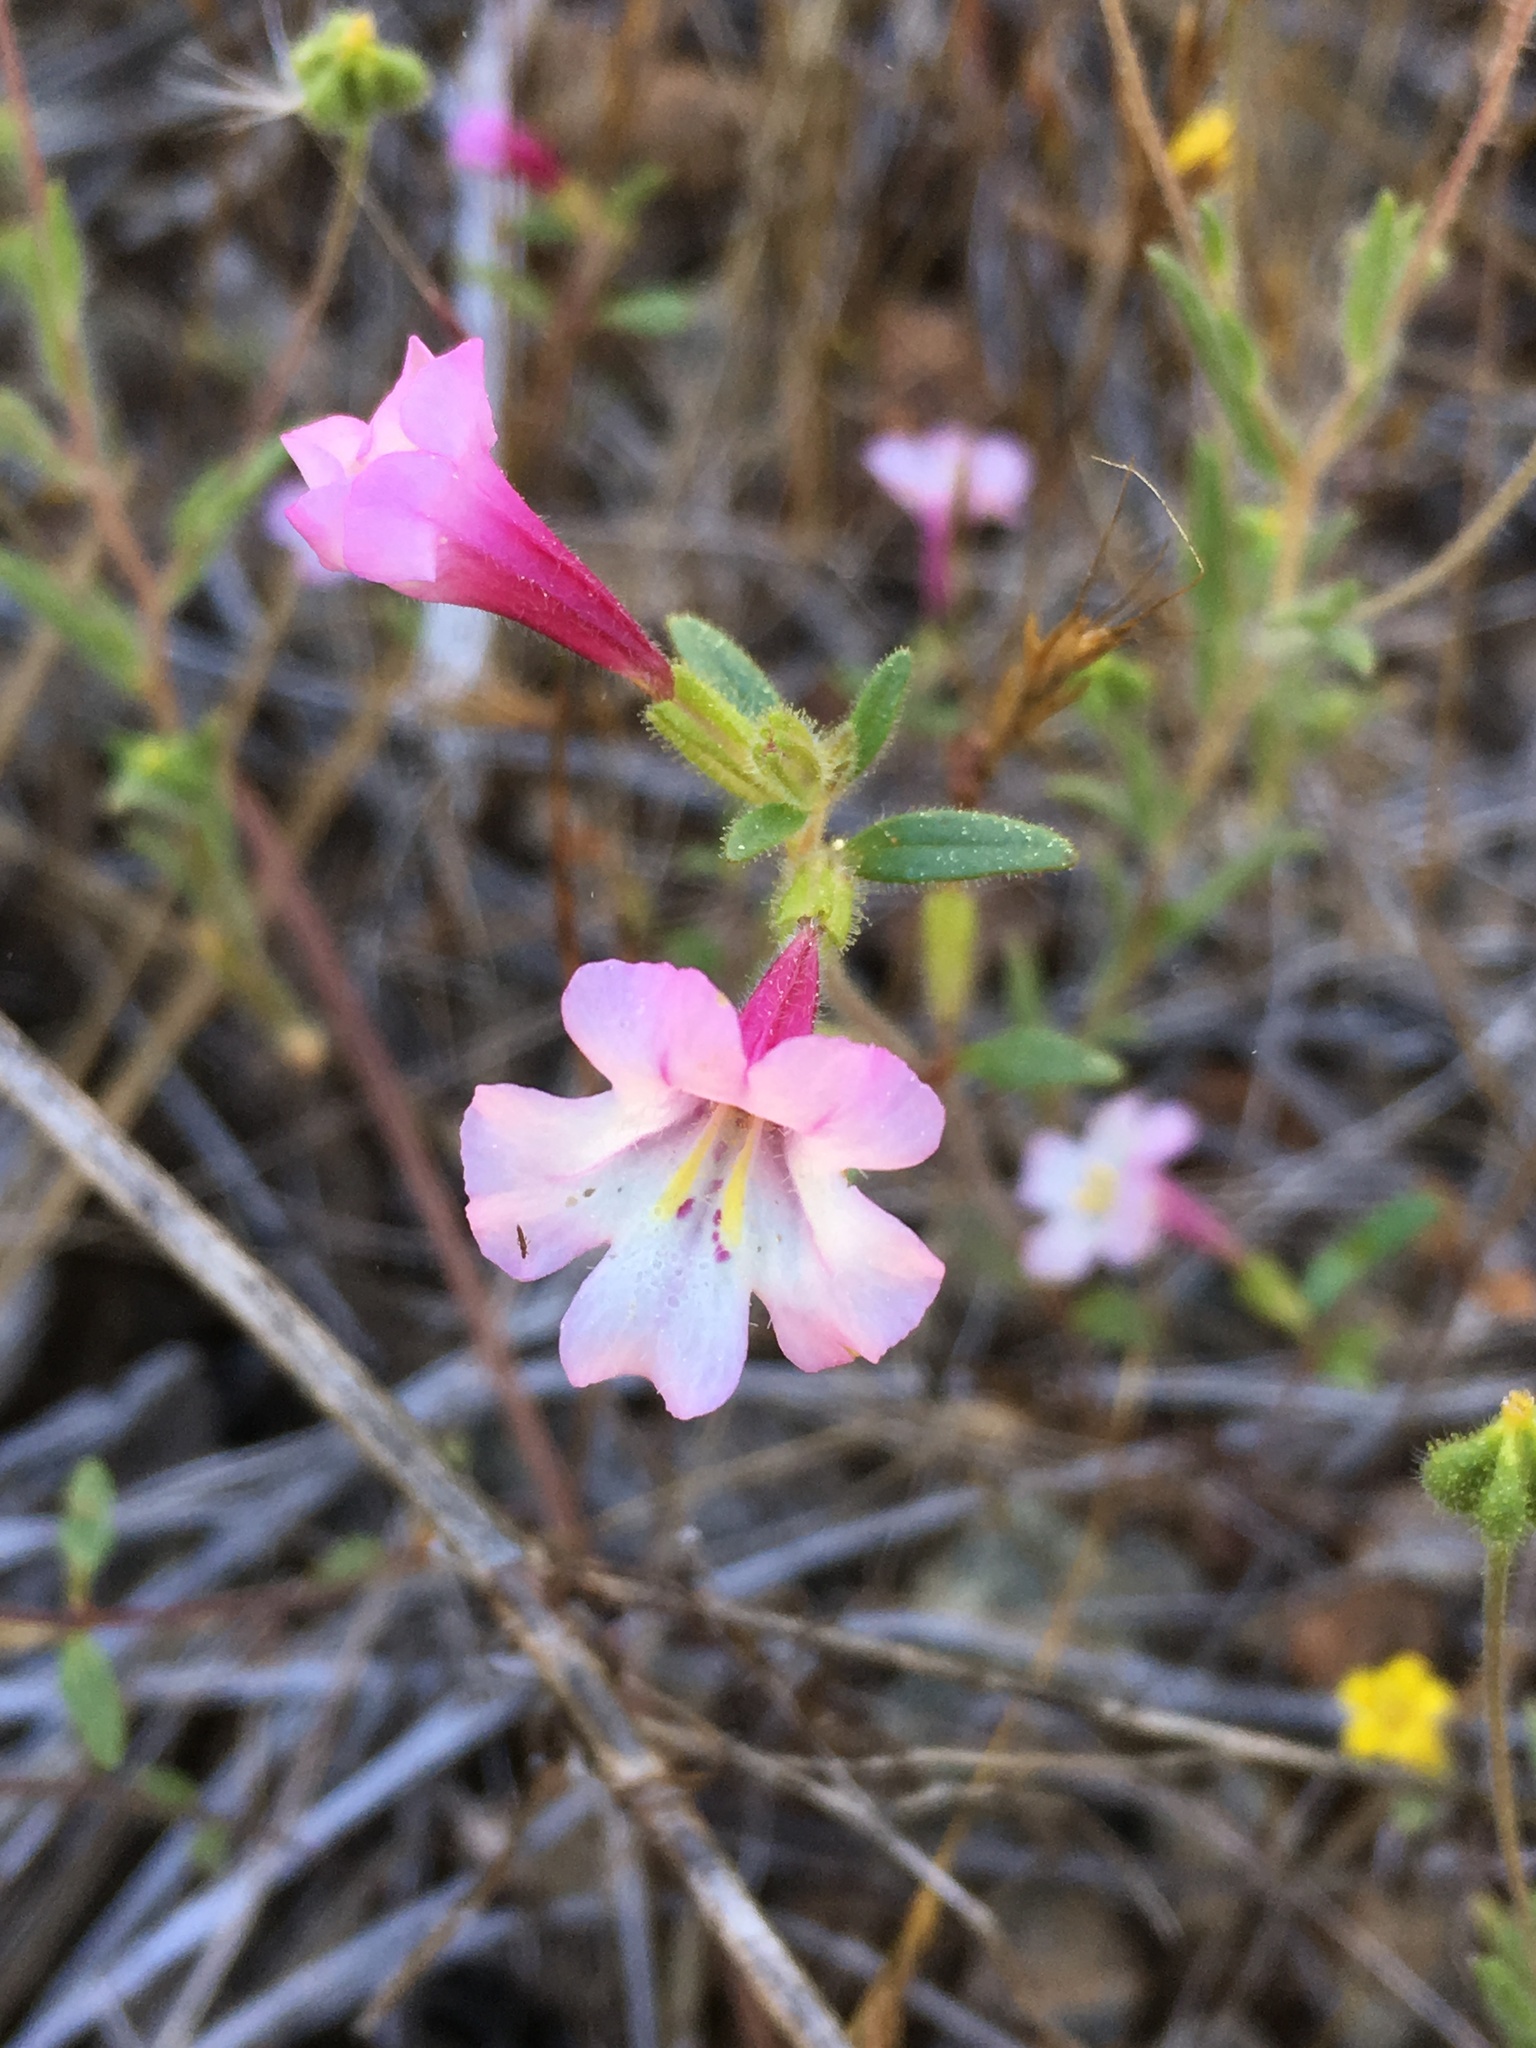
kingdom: Plantae
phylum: Tracheophyta
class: Magnoliopsida
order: Lamiales
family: Phrymaceae
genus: Diplacus
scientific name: Diplacus torreyi
